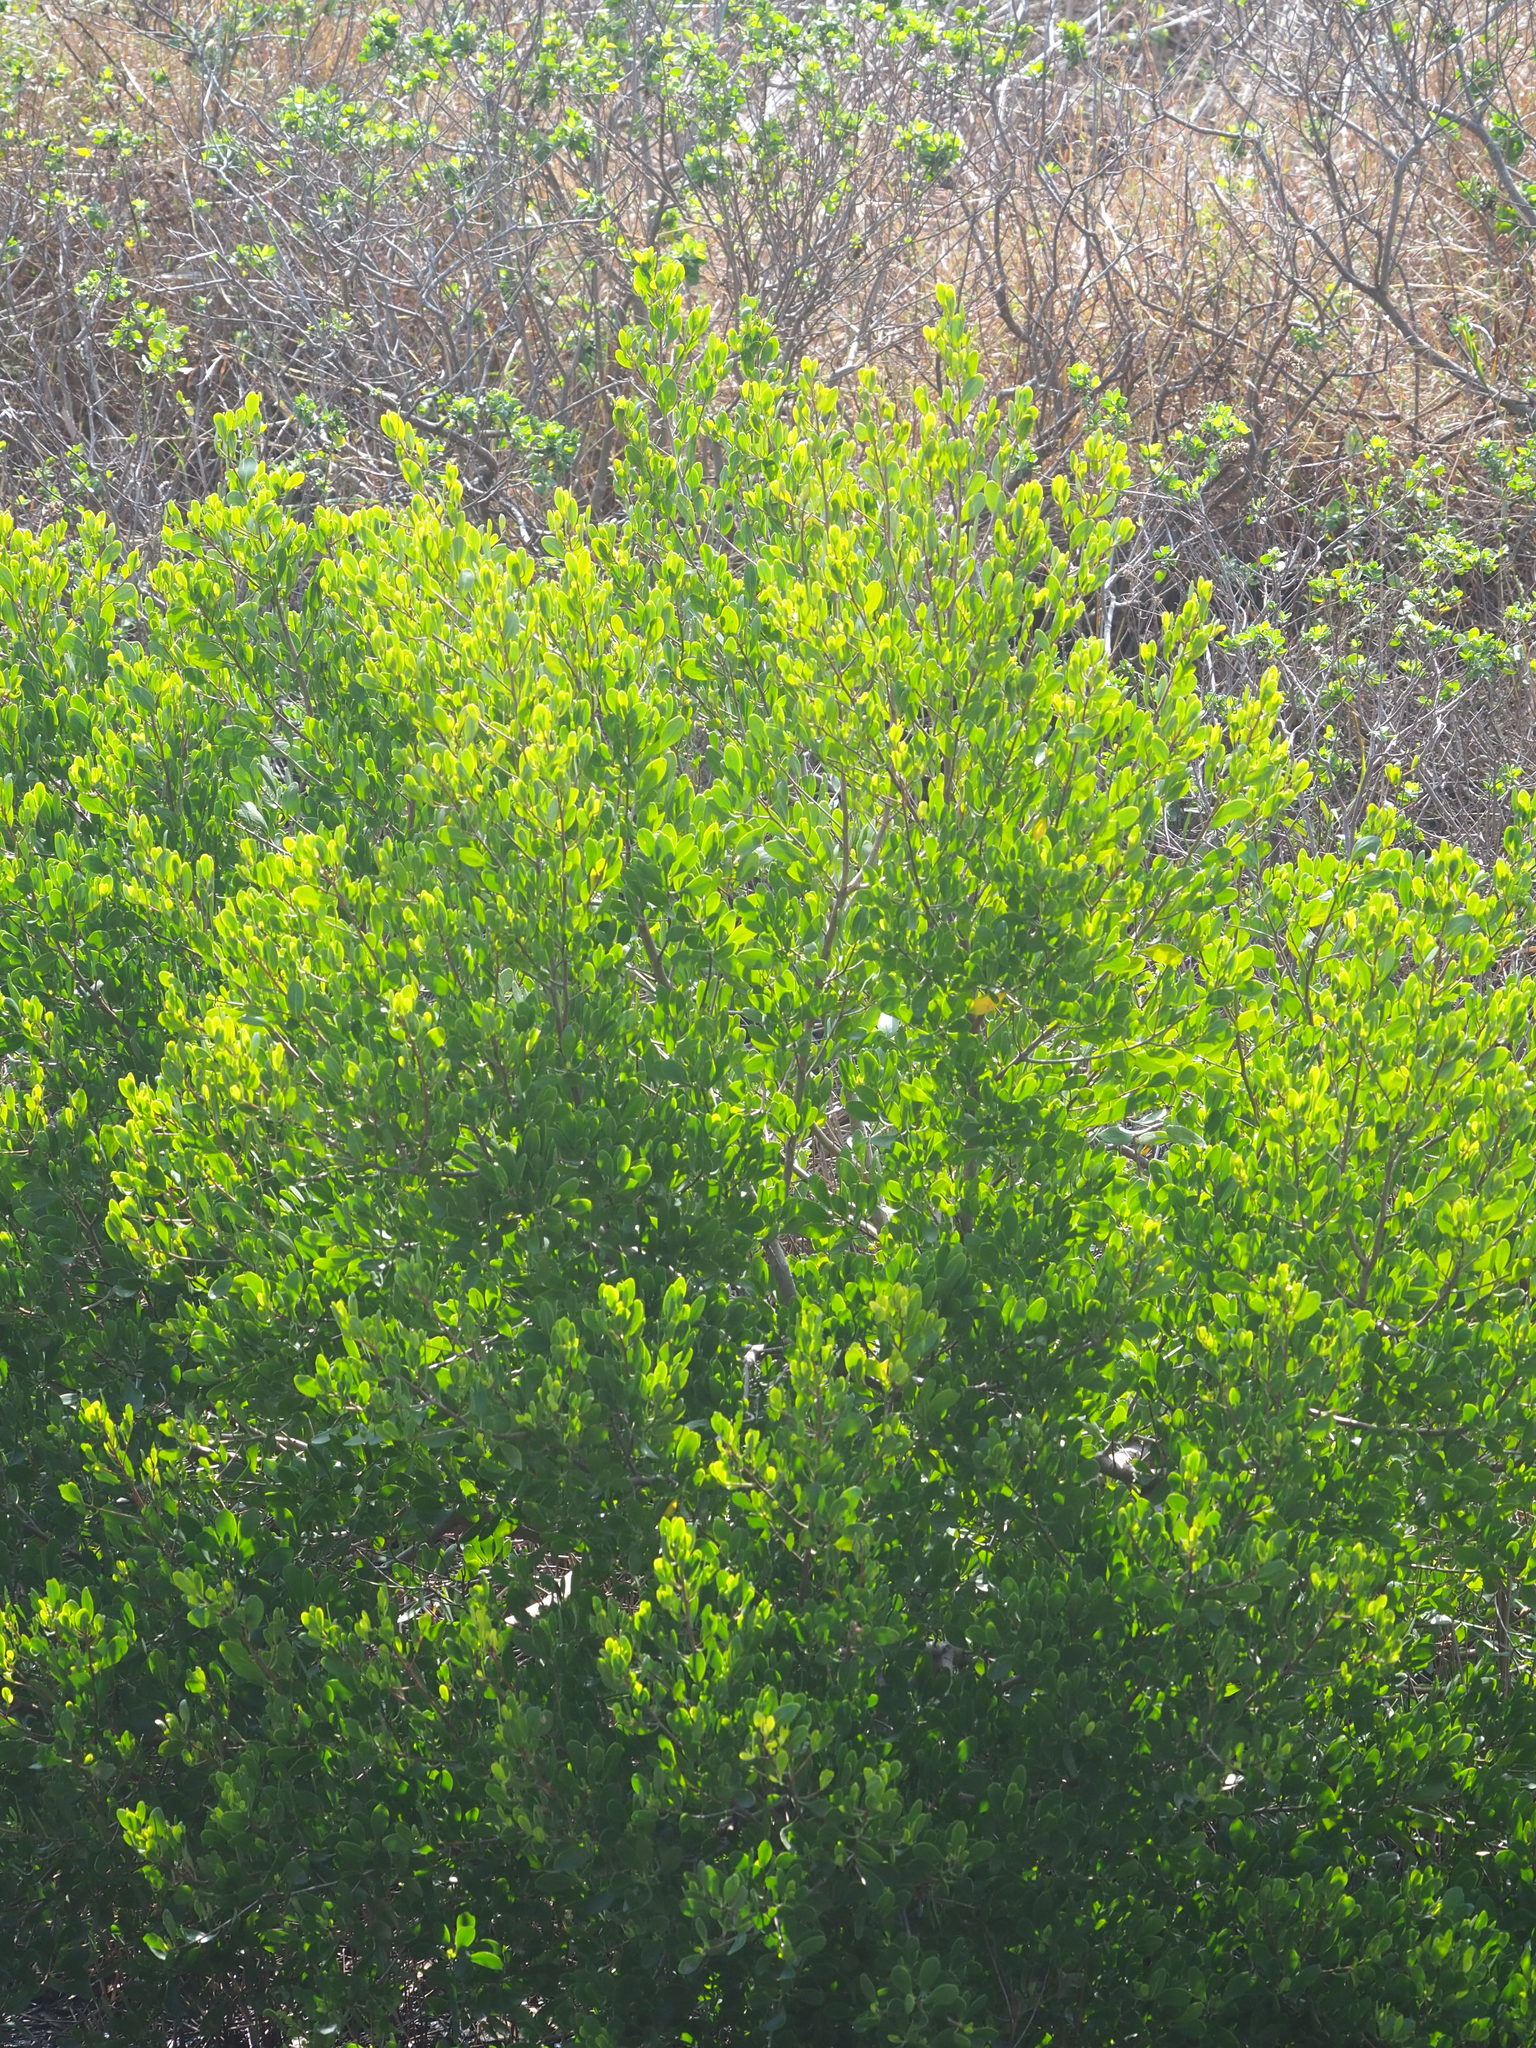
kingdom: Plantae
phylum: Tracheophyta
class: Magnoliopsida
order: Myrtales
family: Combretaceae
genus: Lumnitzera
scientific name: Lumnitzera racemosa
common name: White-flowered black mangrove
